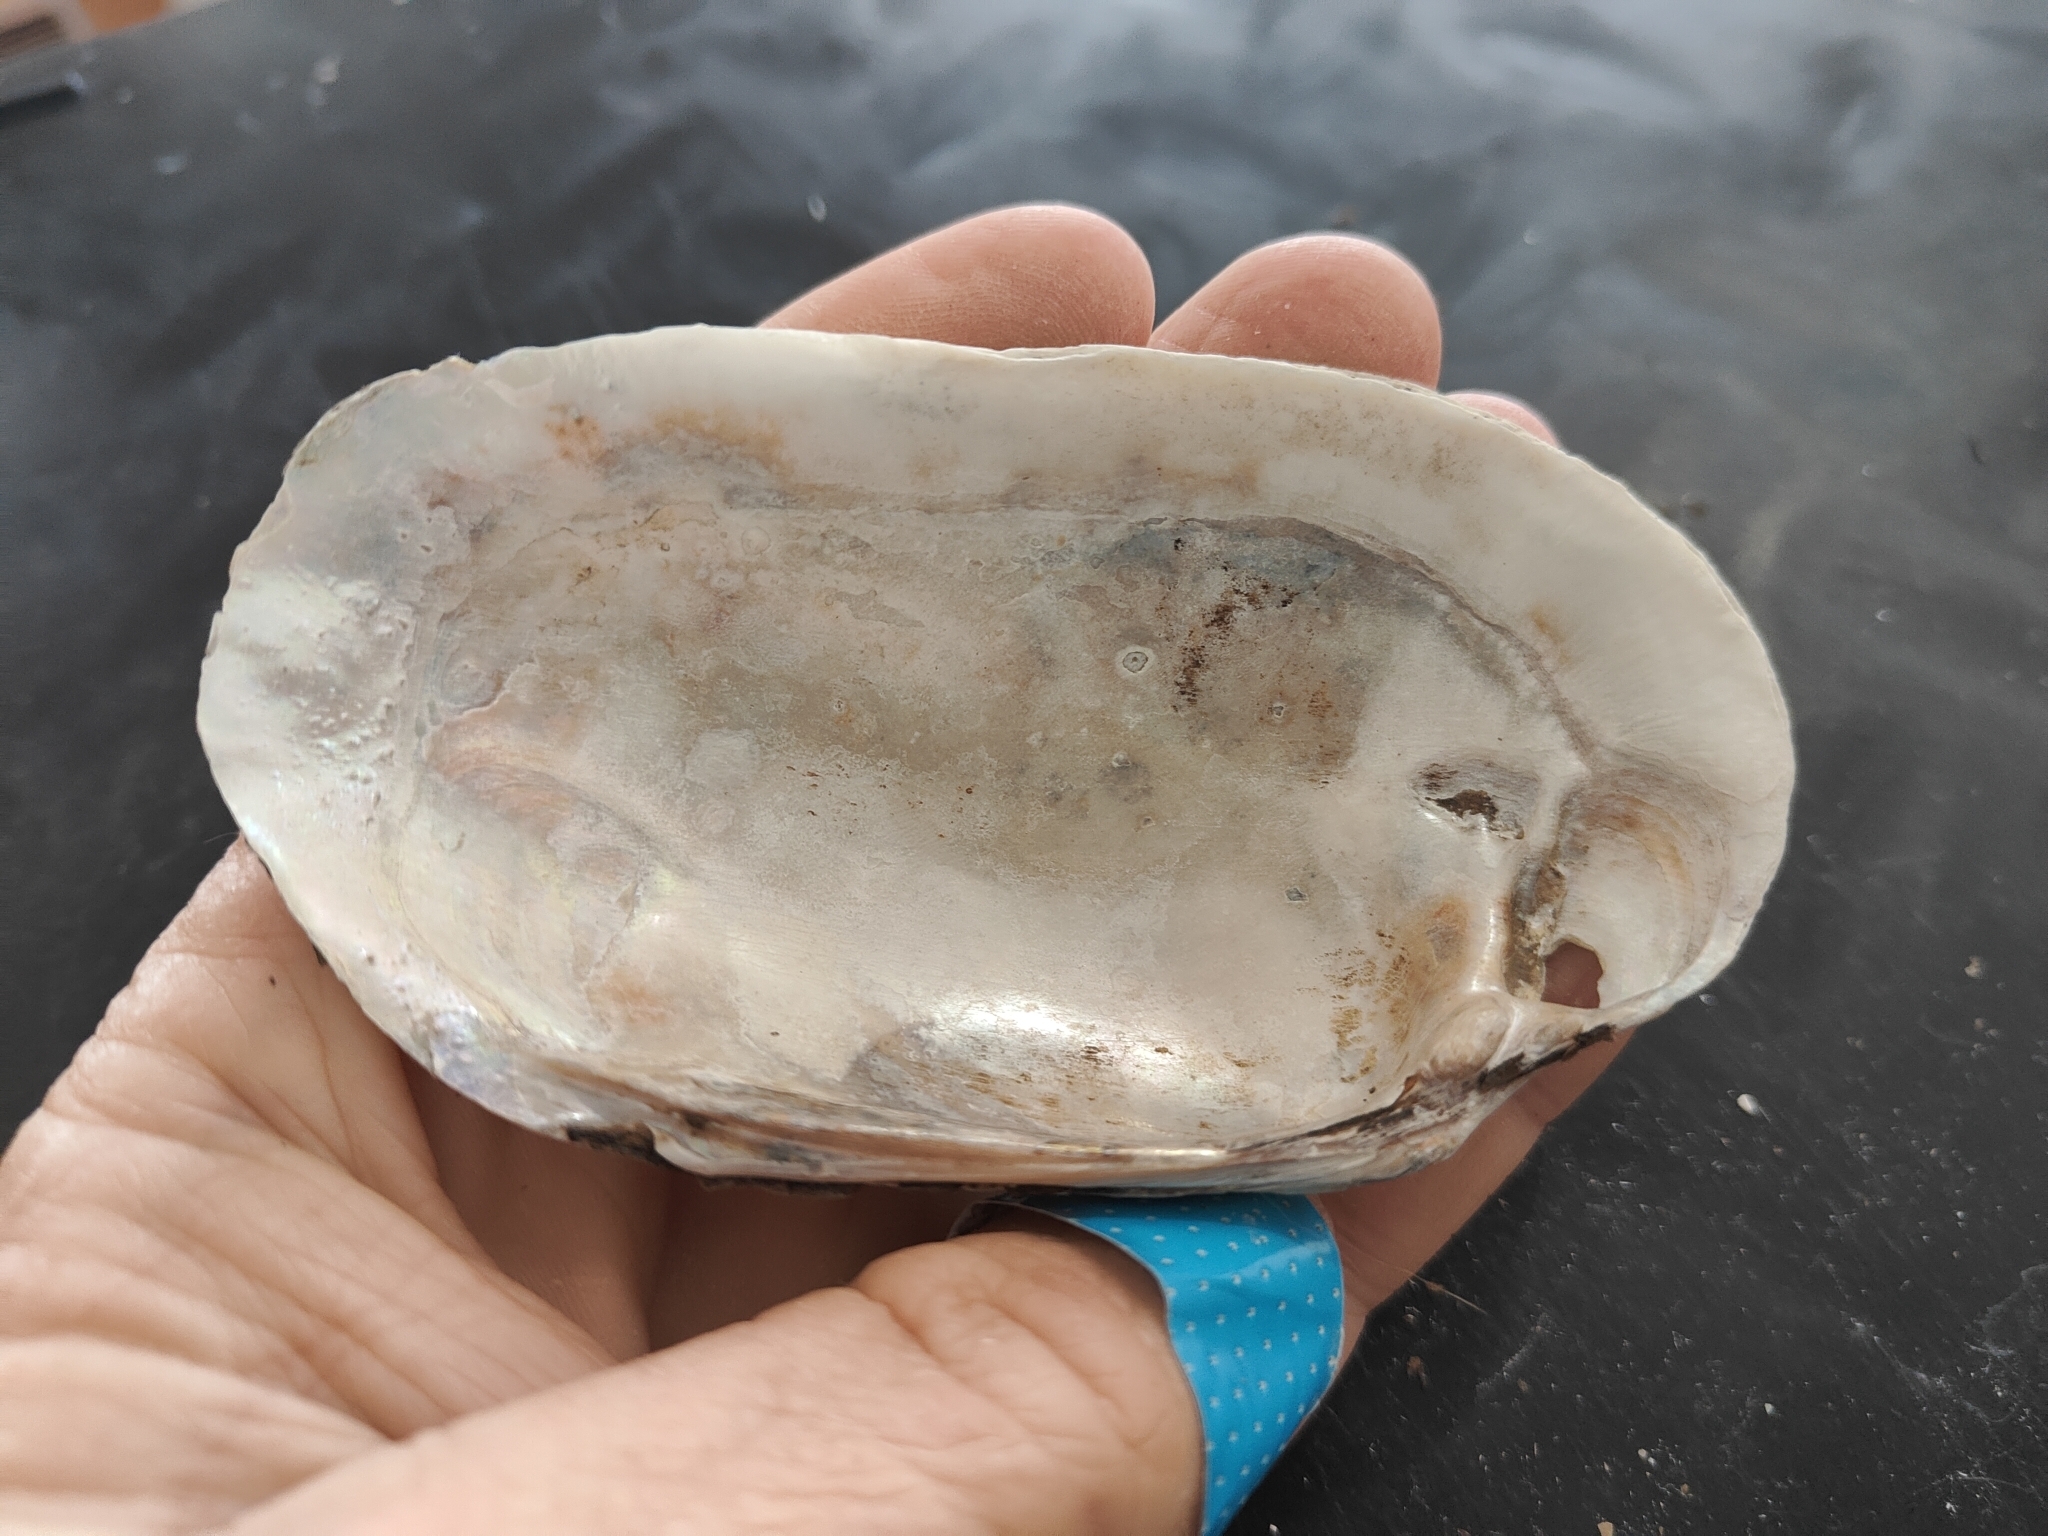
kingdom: Animalia
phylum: Mollusca
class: Bivalvia
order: Unionida
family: Unionidae
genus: Lampsilis
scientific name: Lampsilis siliquoidea
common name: Fatmucket
